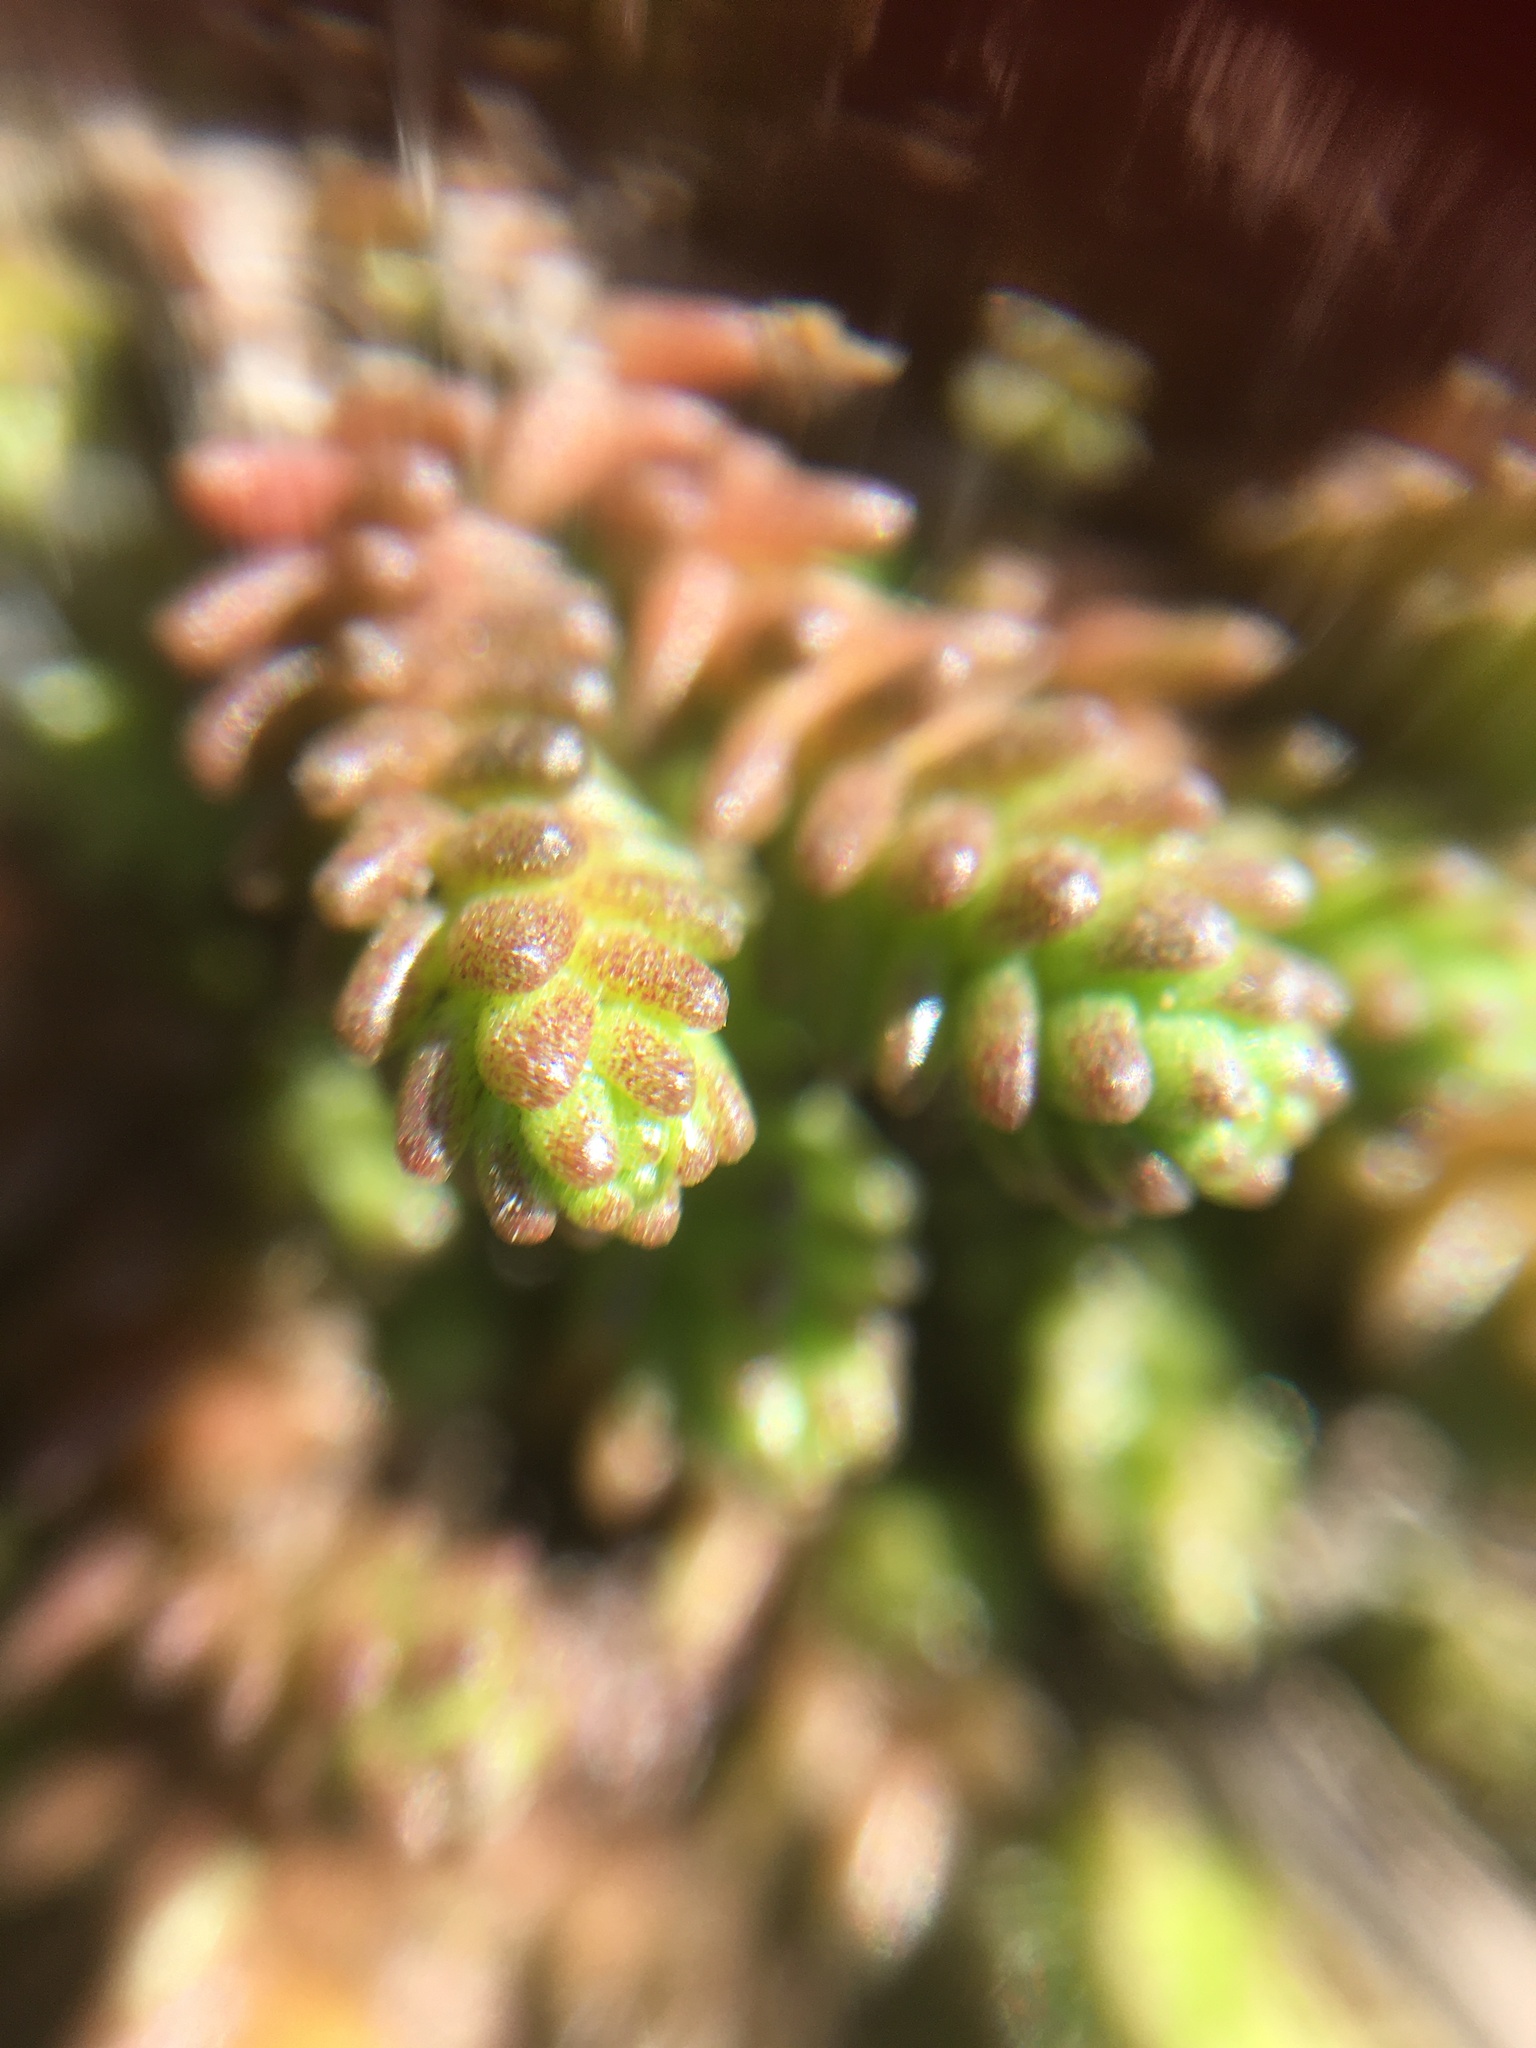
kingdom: Plantae
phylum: Tracheophyta
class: Magnoliopsida
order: Saxifragales
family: Crassulaceae
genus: Sedum
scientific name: Sedum acre
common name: Biting stonecrop
